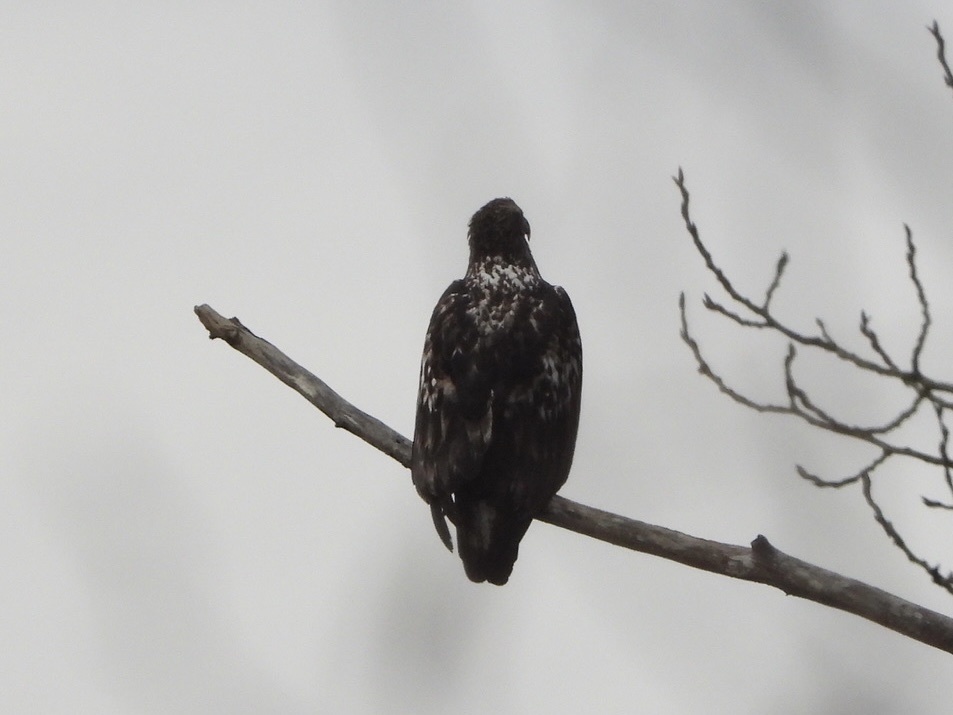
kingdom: Animalia
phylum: Chordata
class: Aves
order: Accipitriformes
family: Accipitridae
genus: Haliaeetus
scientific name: Haliaeetus leucocephalus
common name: Bald eagle
